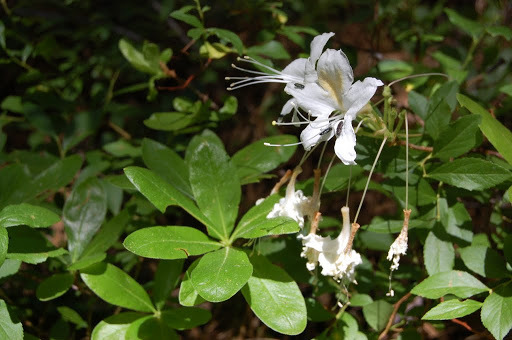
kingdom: Plantae
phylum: Tracheophyta
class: Magnoliopsida
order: Ericales
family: Ericaceae
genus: Rhododendron
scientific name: Rhododendron occidentale
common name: Western azalea
